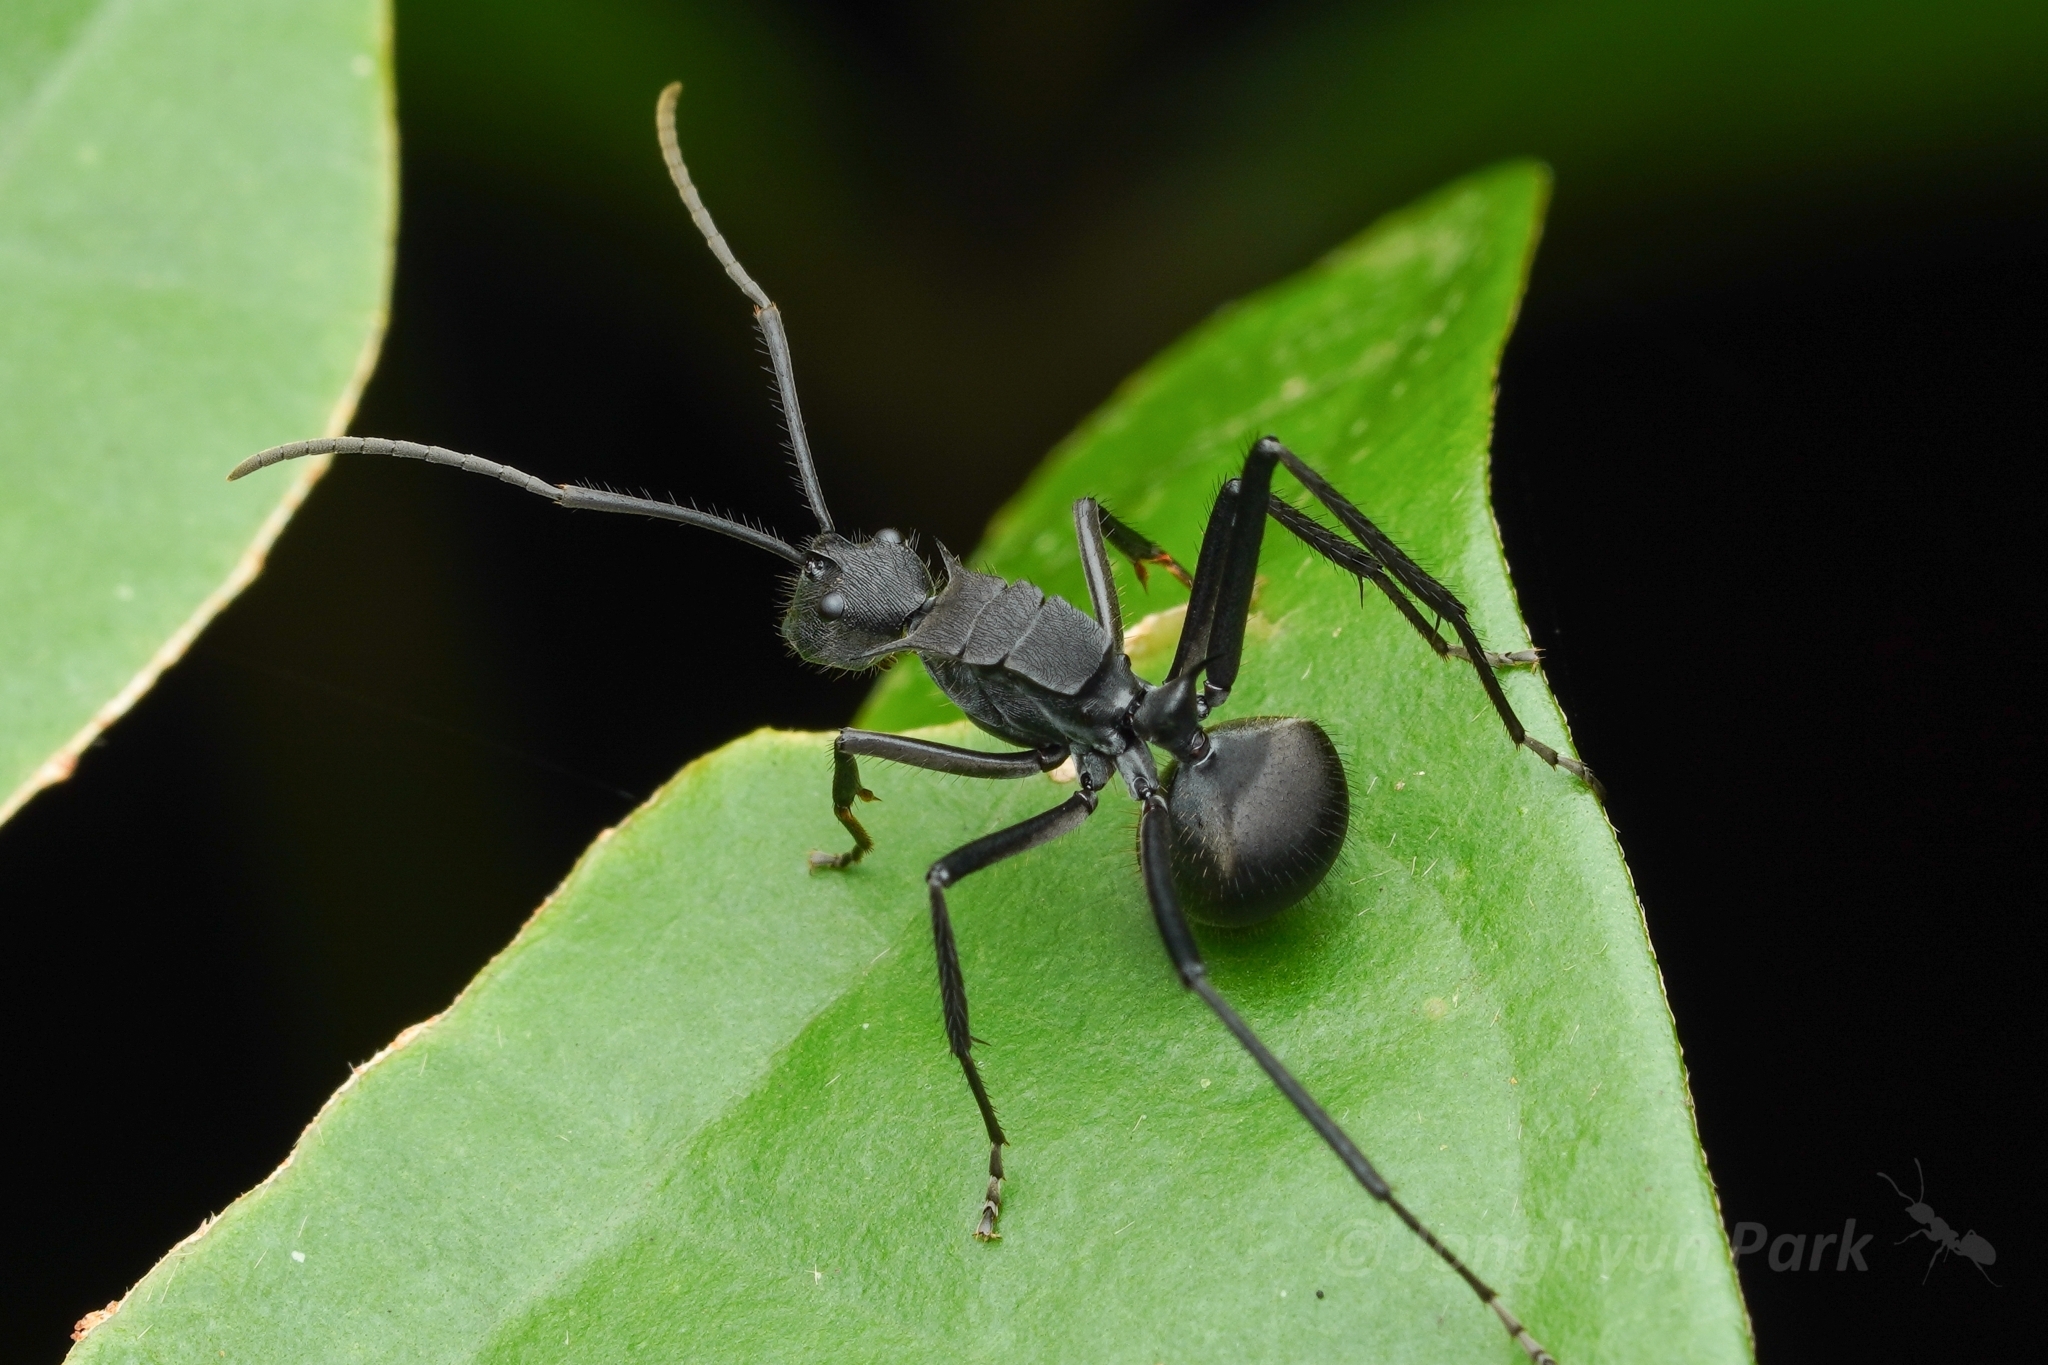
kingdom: Animalia
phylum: Arthropoda
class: Insecta
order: Hymenoptera
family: Formicidae
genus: Polyrhachis
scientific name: Polyrhachis striata
